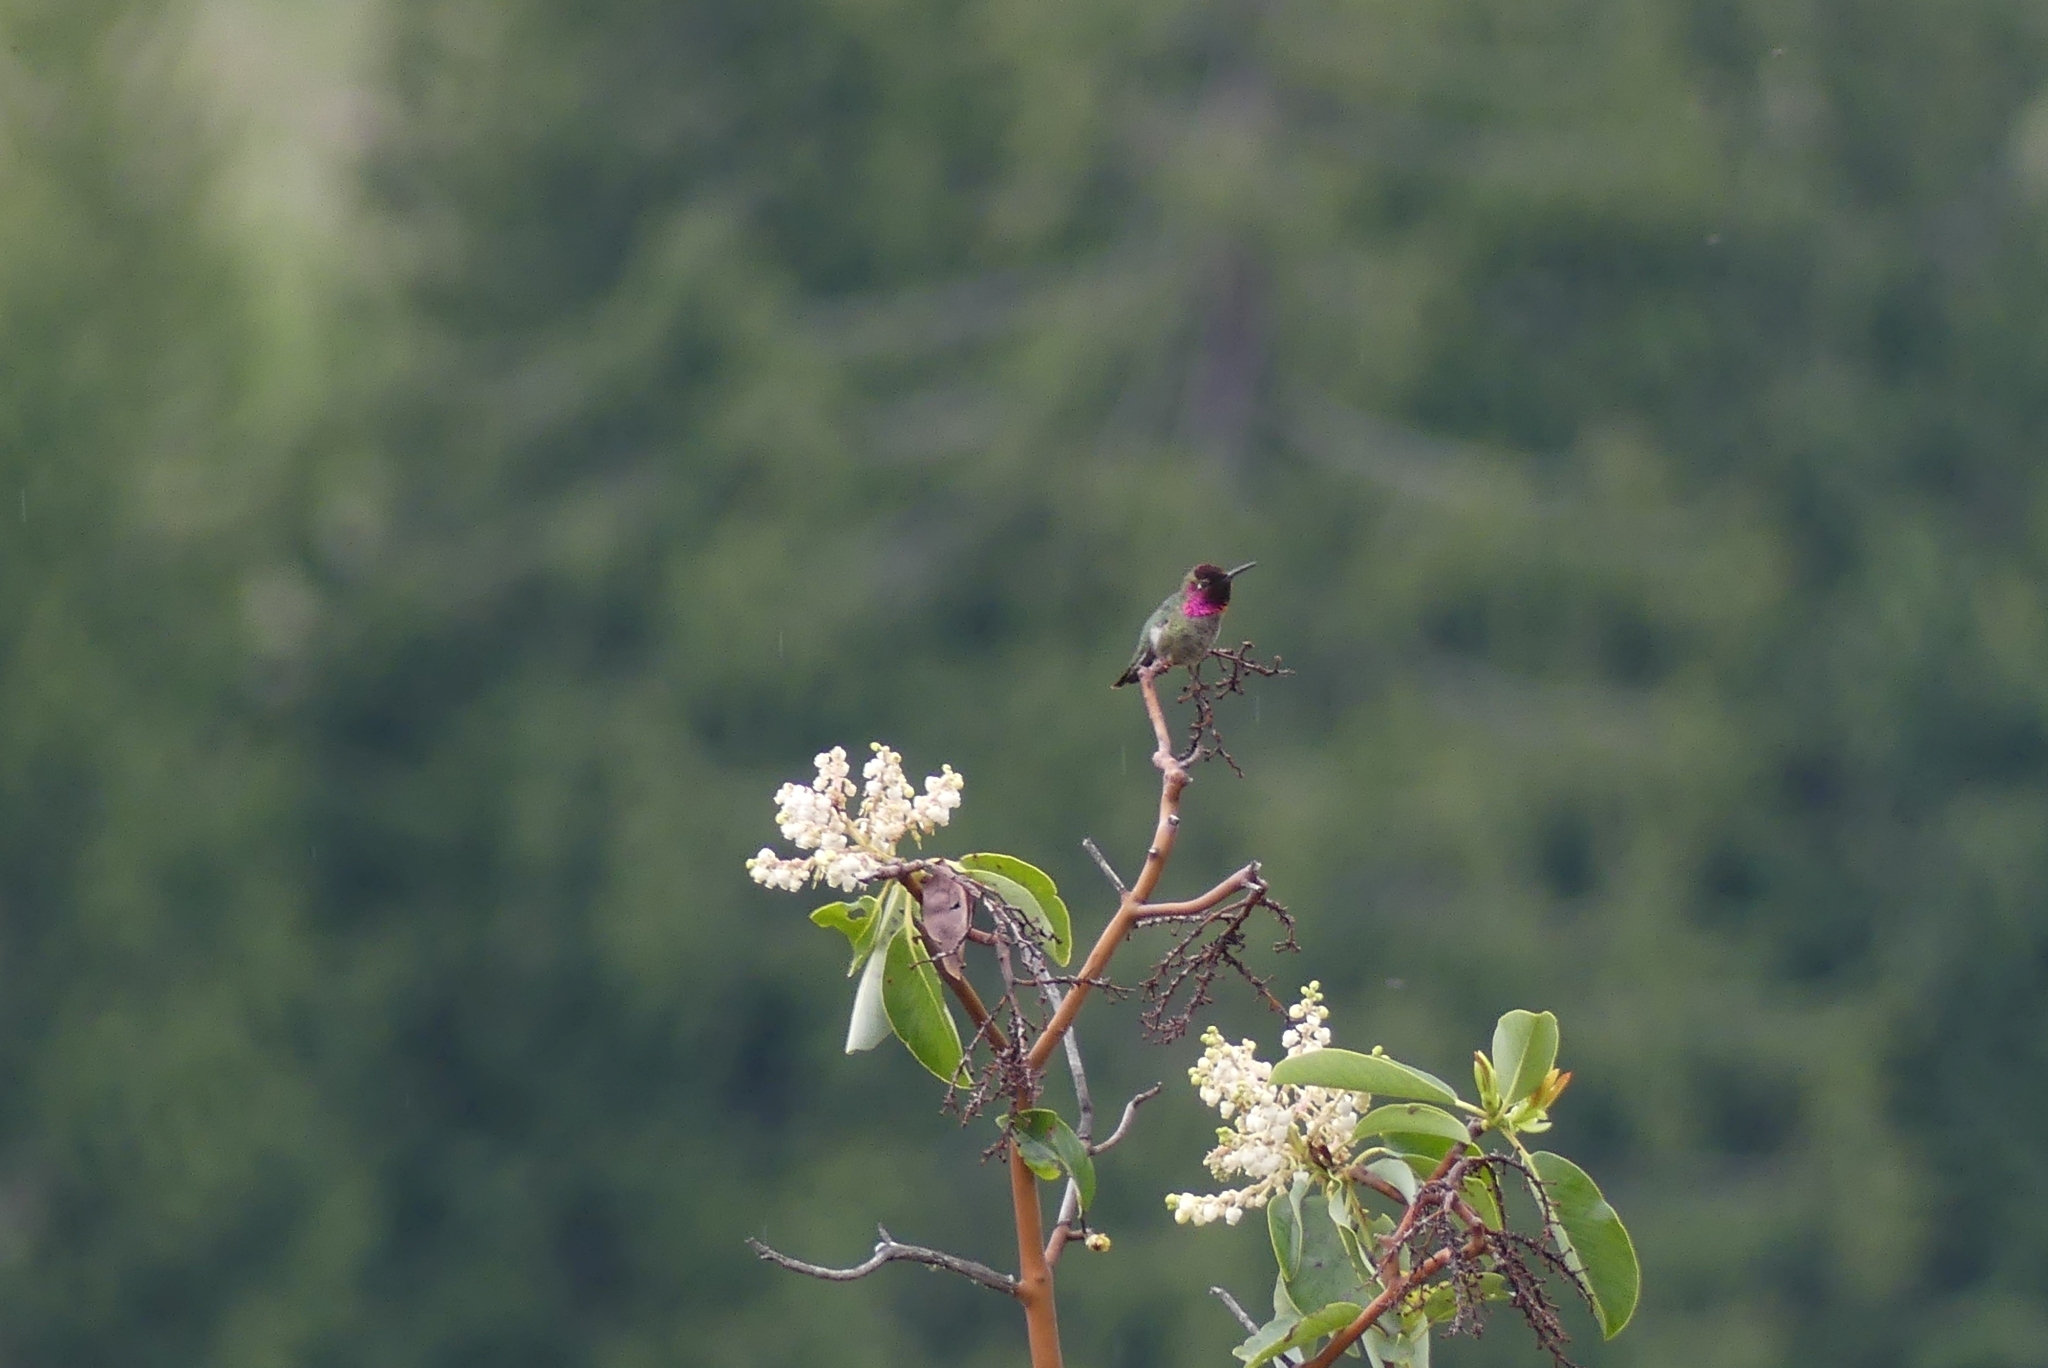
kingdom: Animalia
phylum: Chordata
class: Aves
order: Apodiformes
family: Trochilidae
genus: Calypte
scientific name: Calypte anna
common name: Anna's hummingbird
